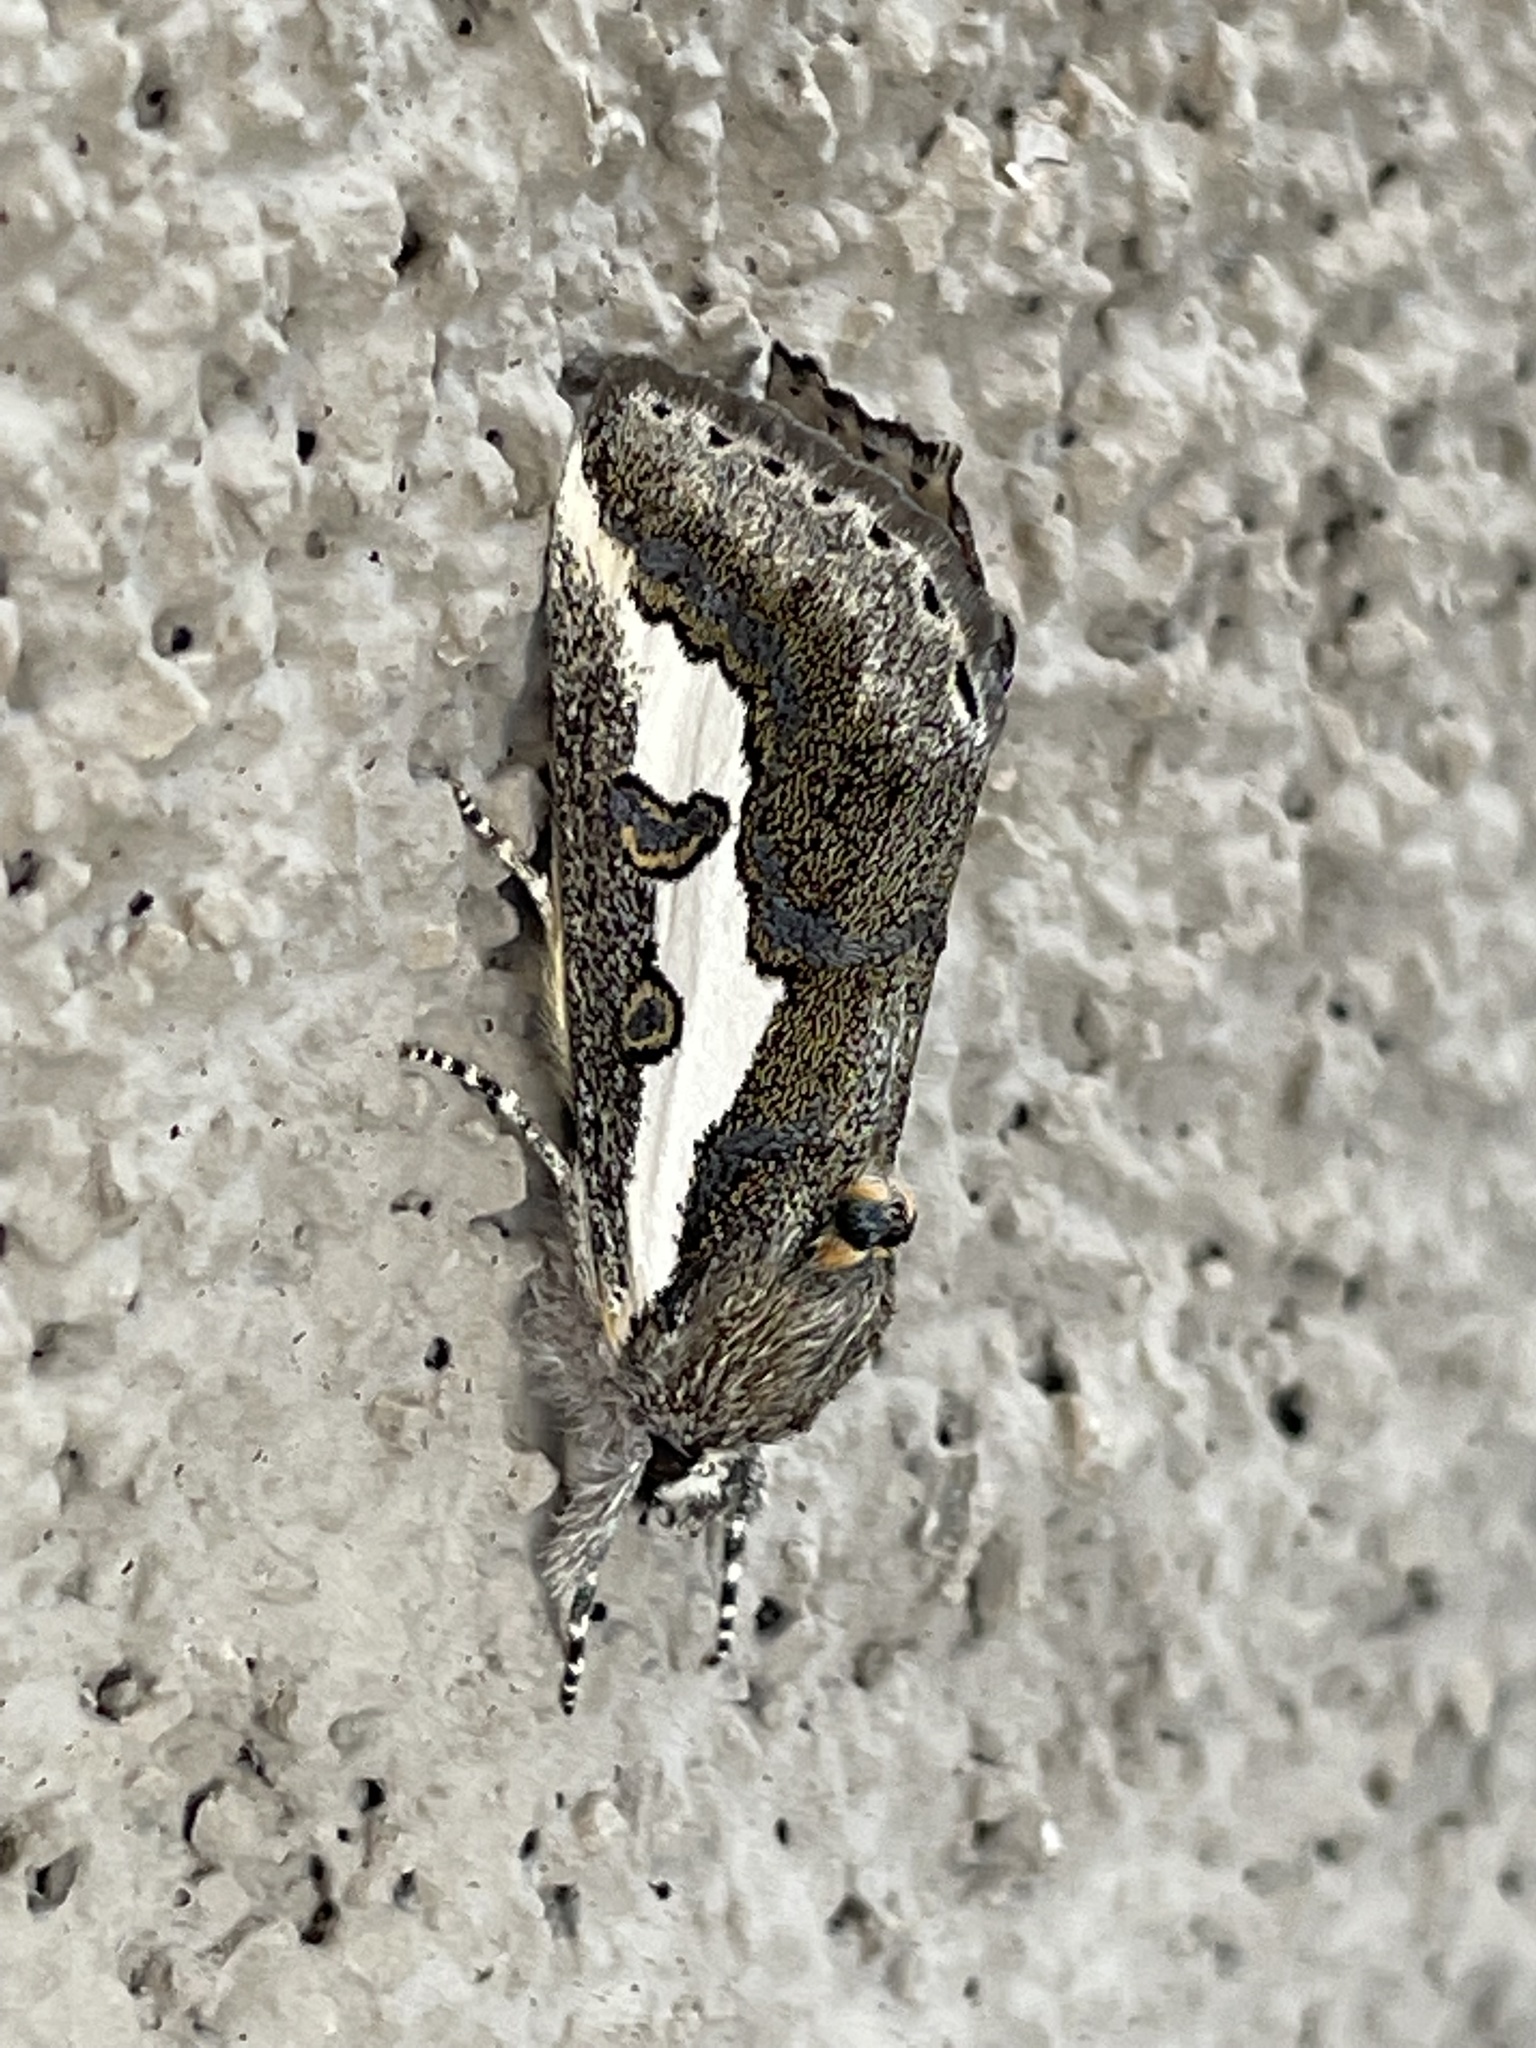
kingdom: Animalia
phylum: Arthropoda
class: Insecta
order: Lepidoptera
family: Noctuidae
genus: Euscirrhopterus
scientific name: Euscirrhopterus gloveri
